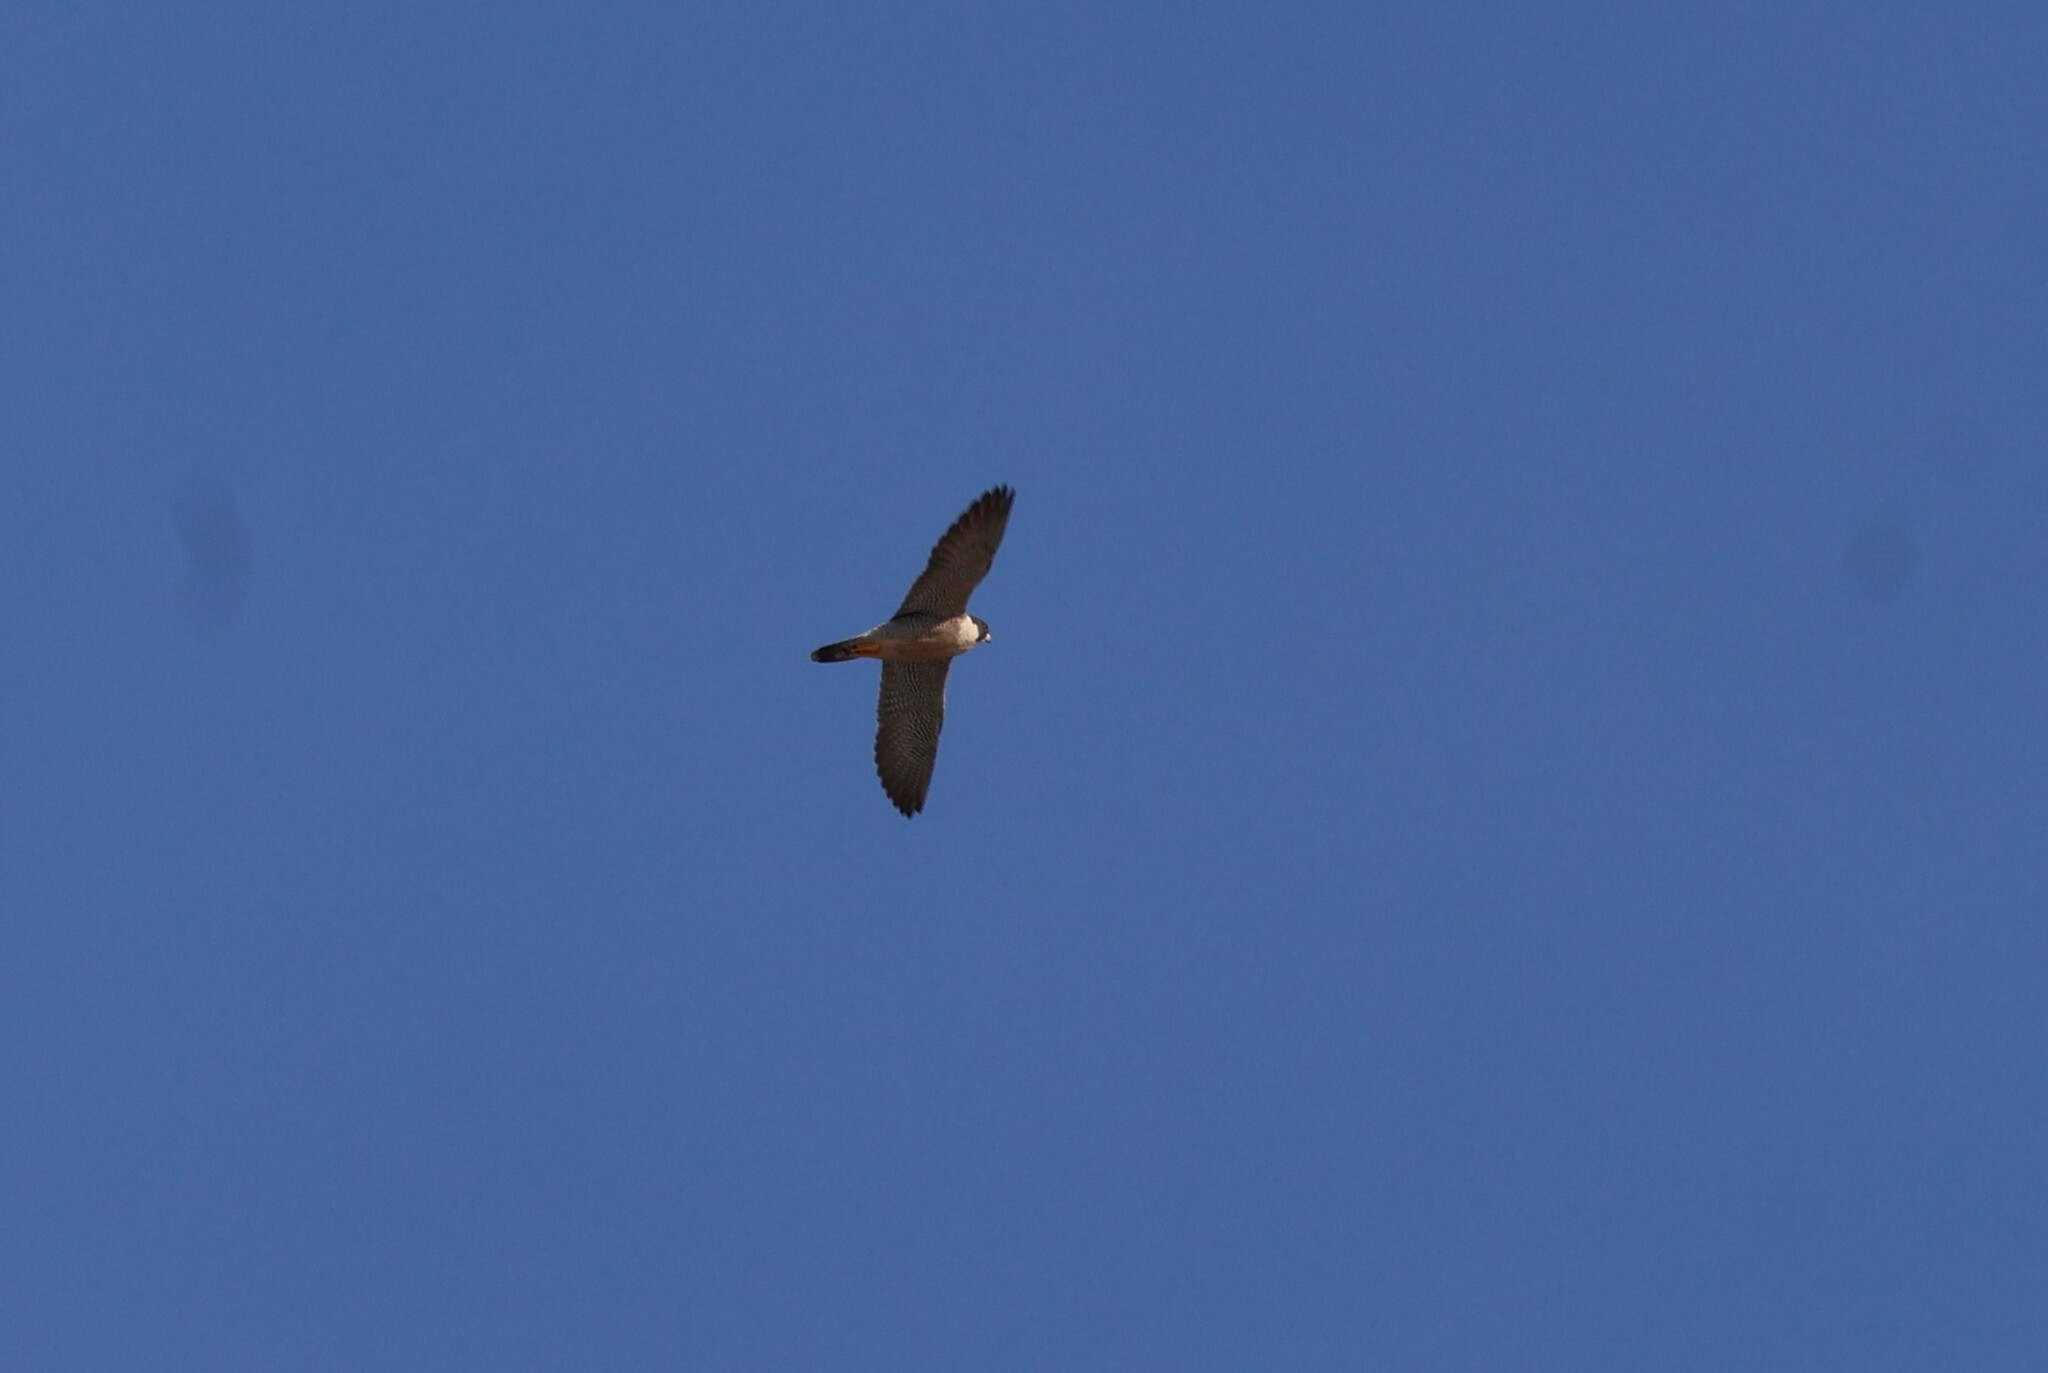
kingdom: Animalia
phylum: Chordata
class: Aves
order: Falconiformes
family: Falconidae
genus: Falco
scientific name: Falco peregrinus
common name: Peregrine falcon
